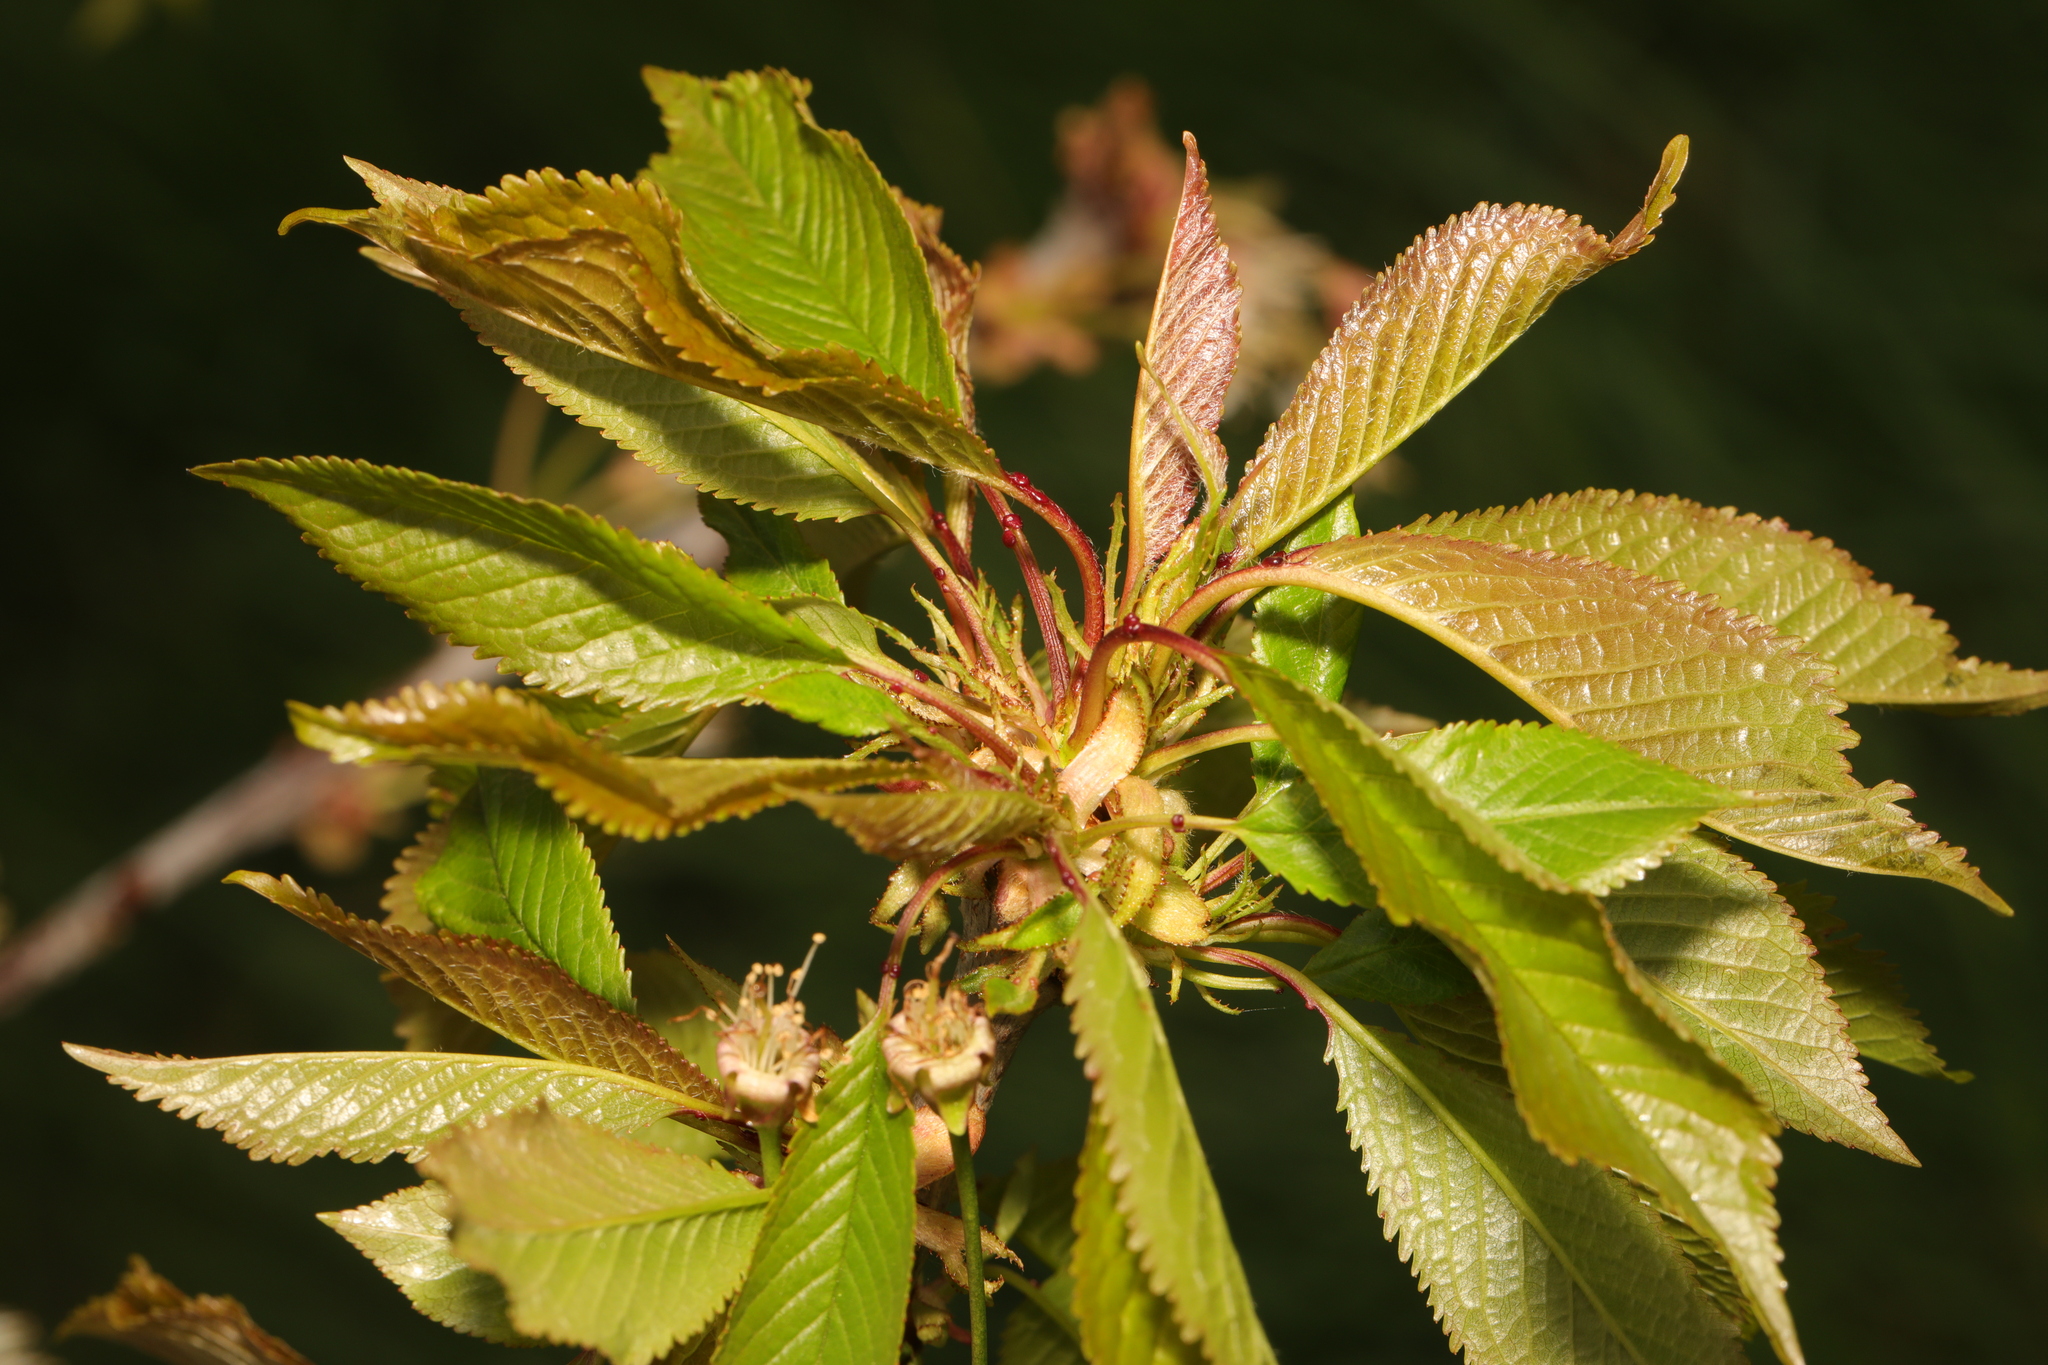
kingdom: Plantae
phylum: Tracheophyta
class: Magnoliopsida
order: Rosales
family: Rosaceae
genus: Prunus
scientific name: Prunus avium
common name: Sweet cherry
